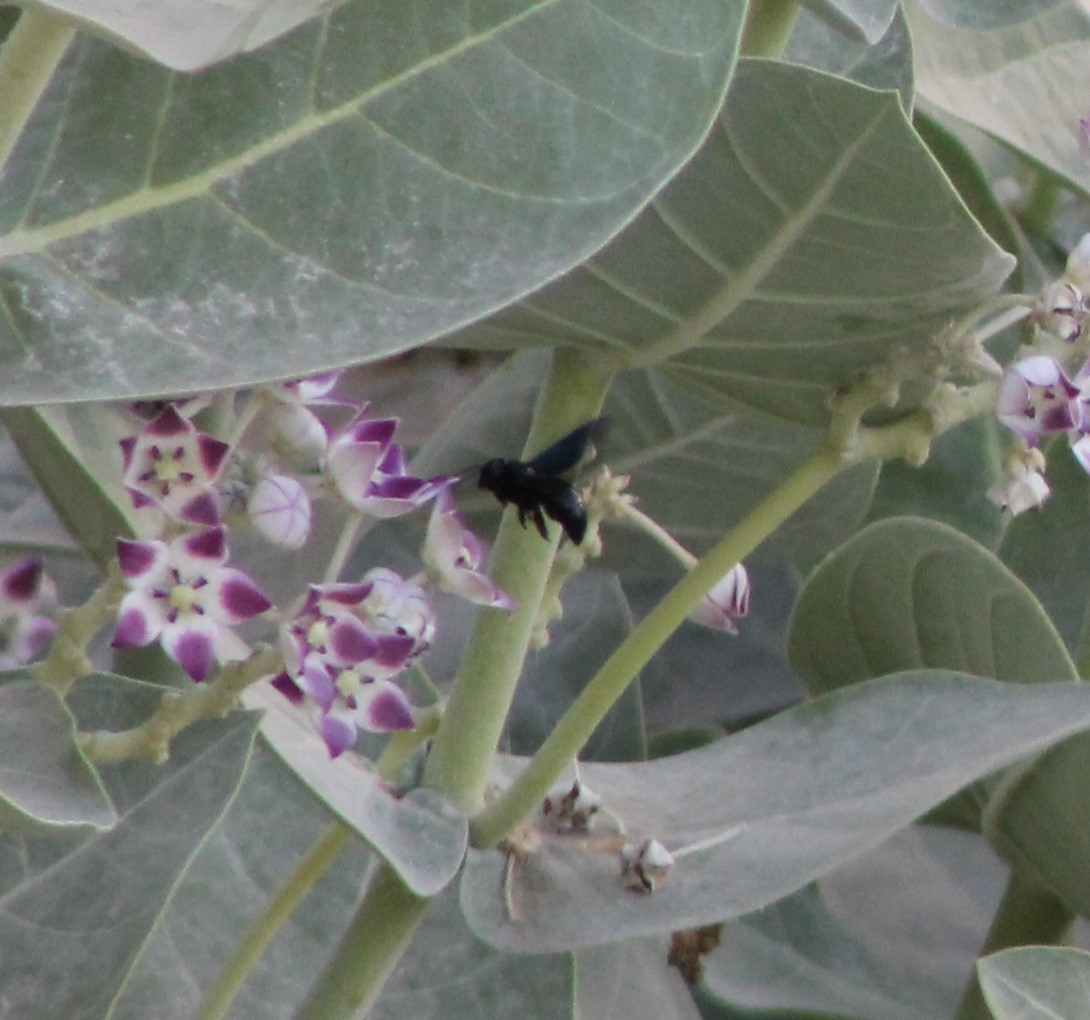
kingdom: Animalia
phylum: Arthropoda
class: Insecta
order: Hymenoptera
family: Apidae
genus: Xylocopa
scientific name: Xylocopa sulcatipes
